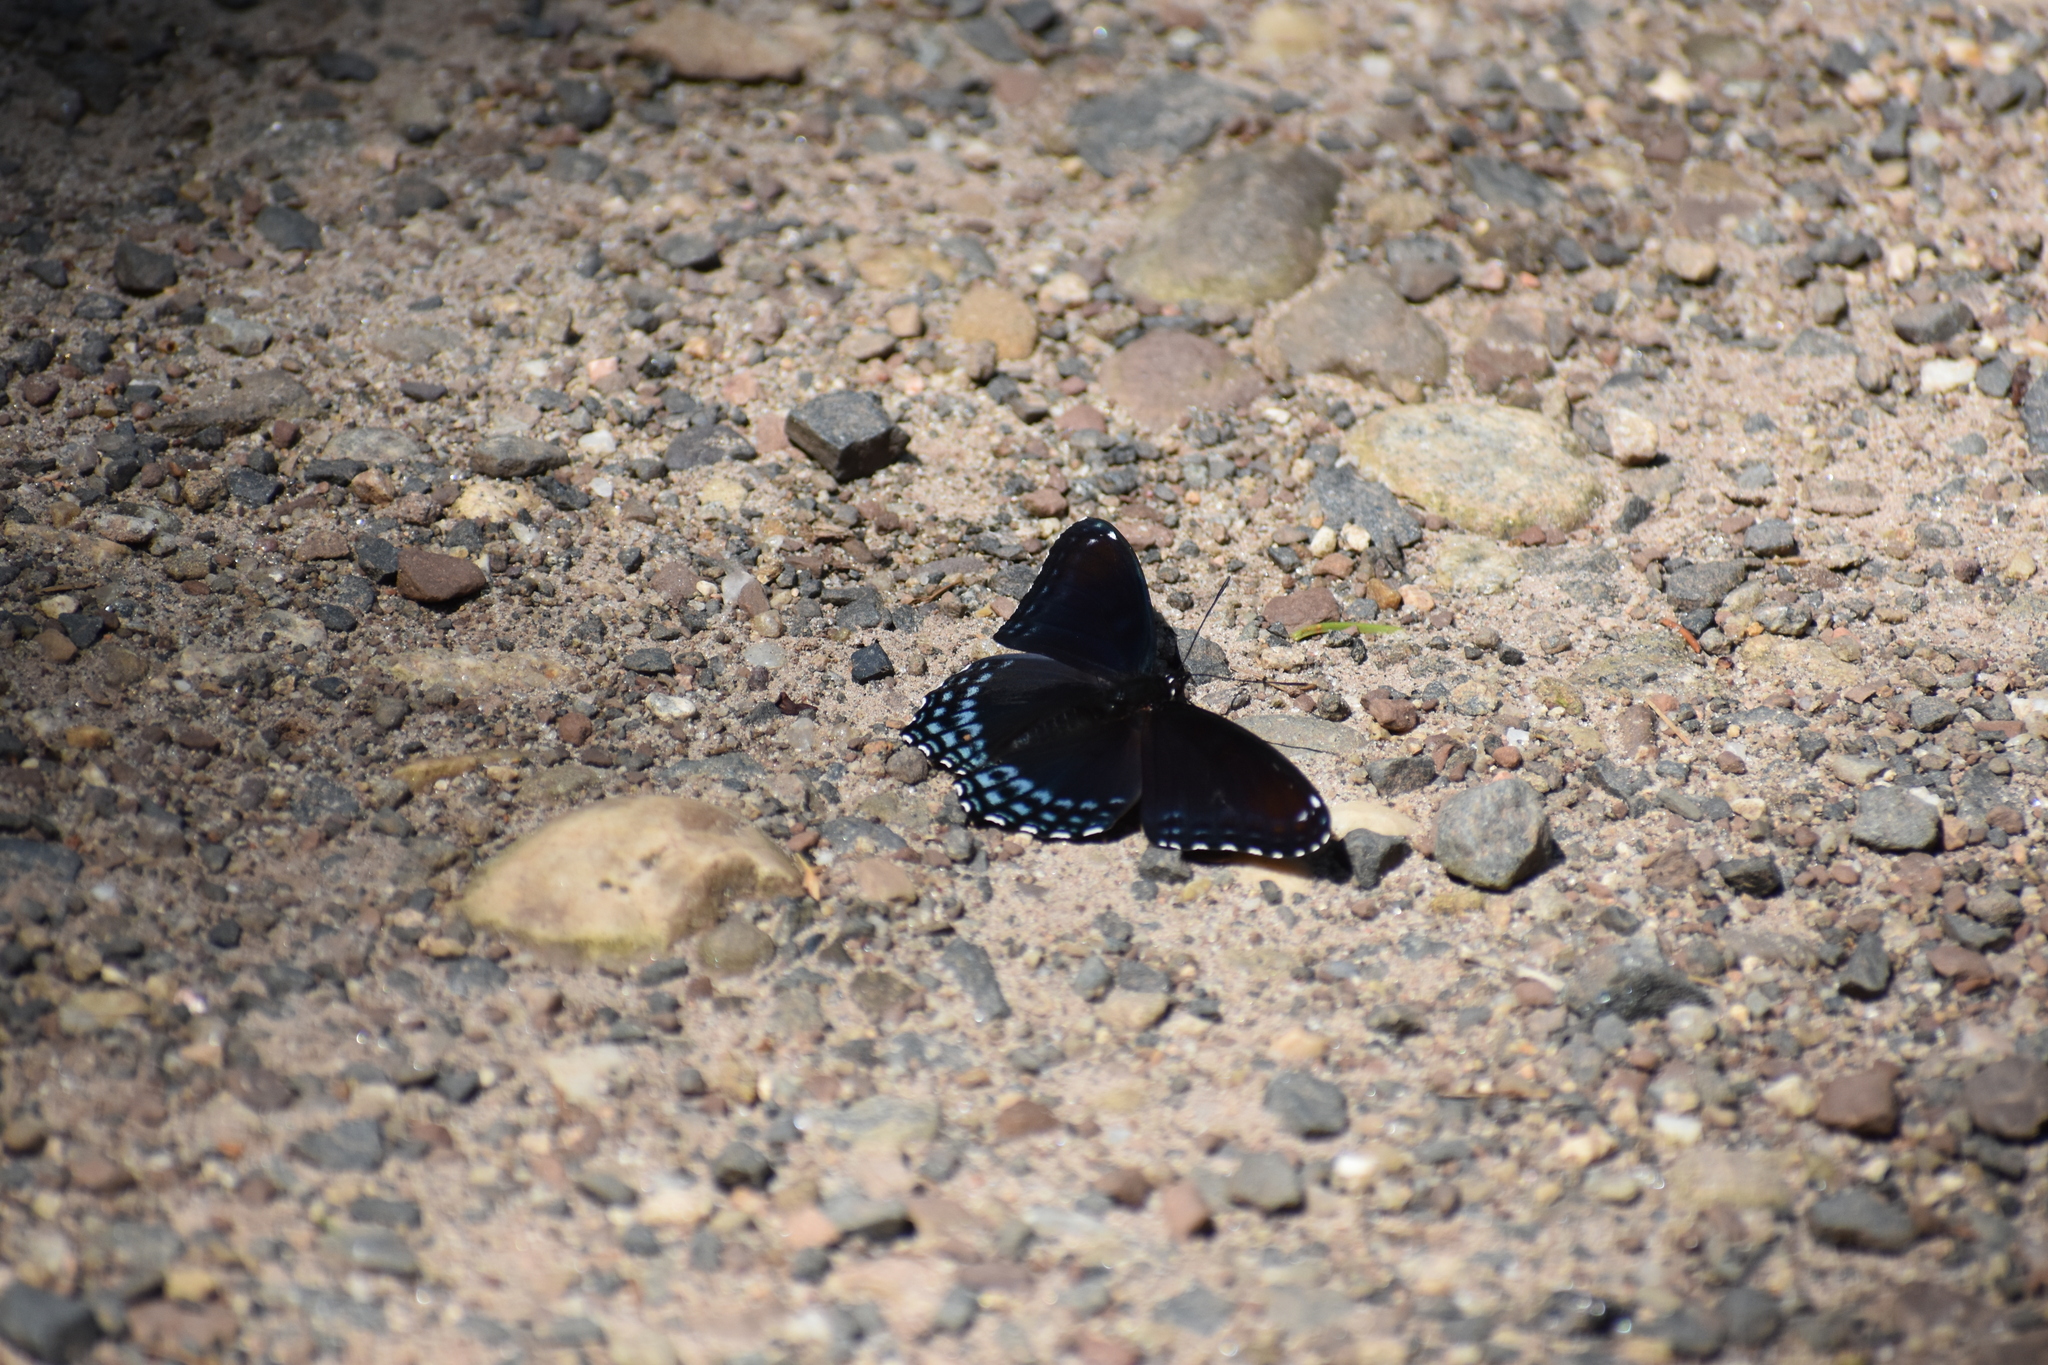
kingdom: Animalia
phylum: Arthropoda
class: Insecta
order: Lepidoptera
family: Nymphalidae
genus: Limenitis
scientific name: Limenitis arthemis
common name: Red-spotted admiral
